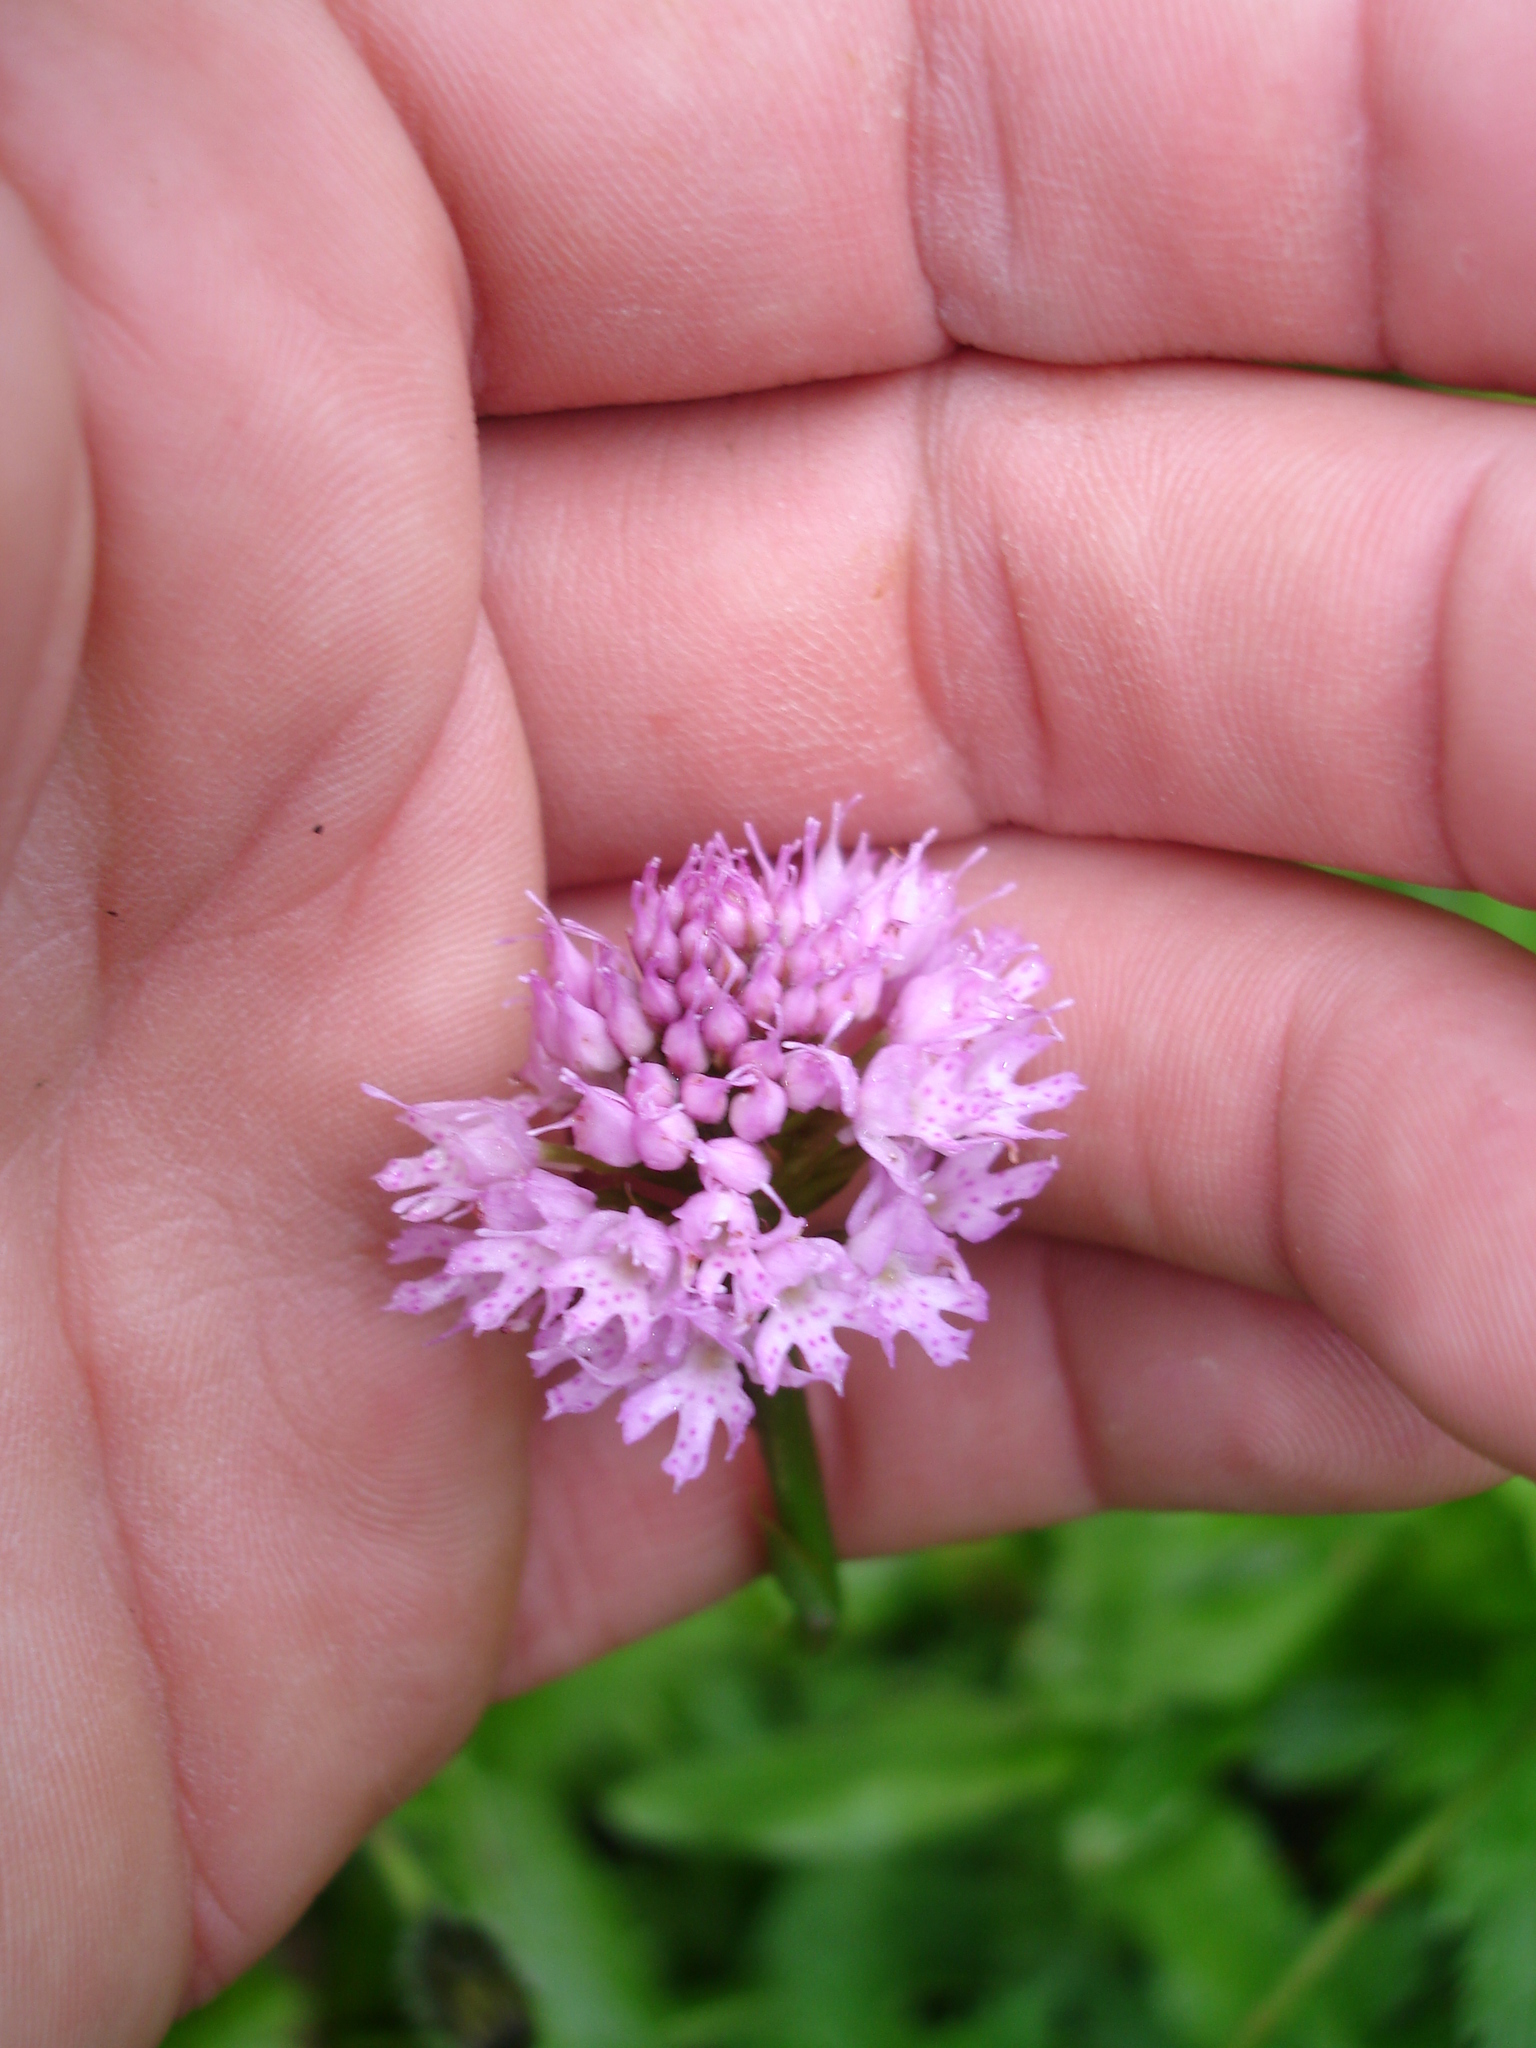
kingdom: Plantae
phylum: Tracheophyta
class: Liliopsida
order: Asparagales
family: Orchidaceae
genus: Traunsteinera
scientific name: Traunsteinera globosa
